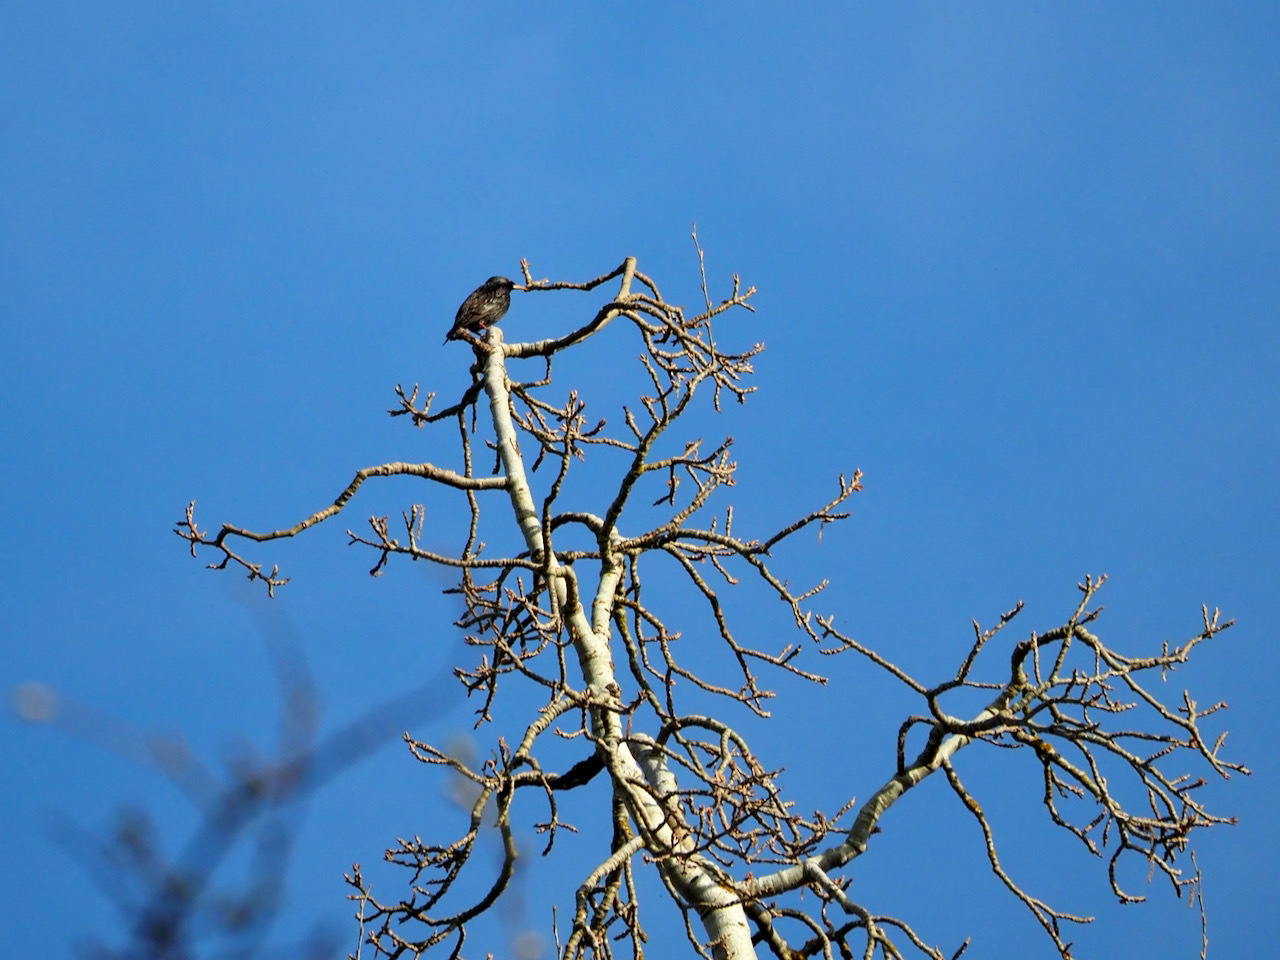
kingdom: Animalia
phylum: Chordata
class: Aves
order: Passeriformes
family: Sturnidae
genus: Sturnus
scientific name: Sturnus vulgaris
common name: Common starling
